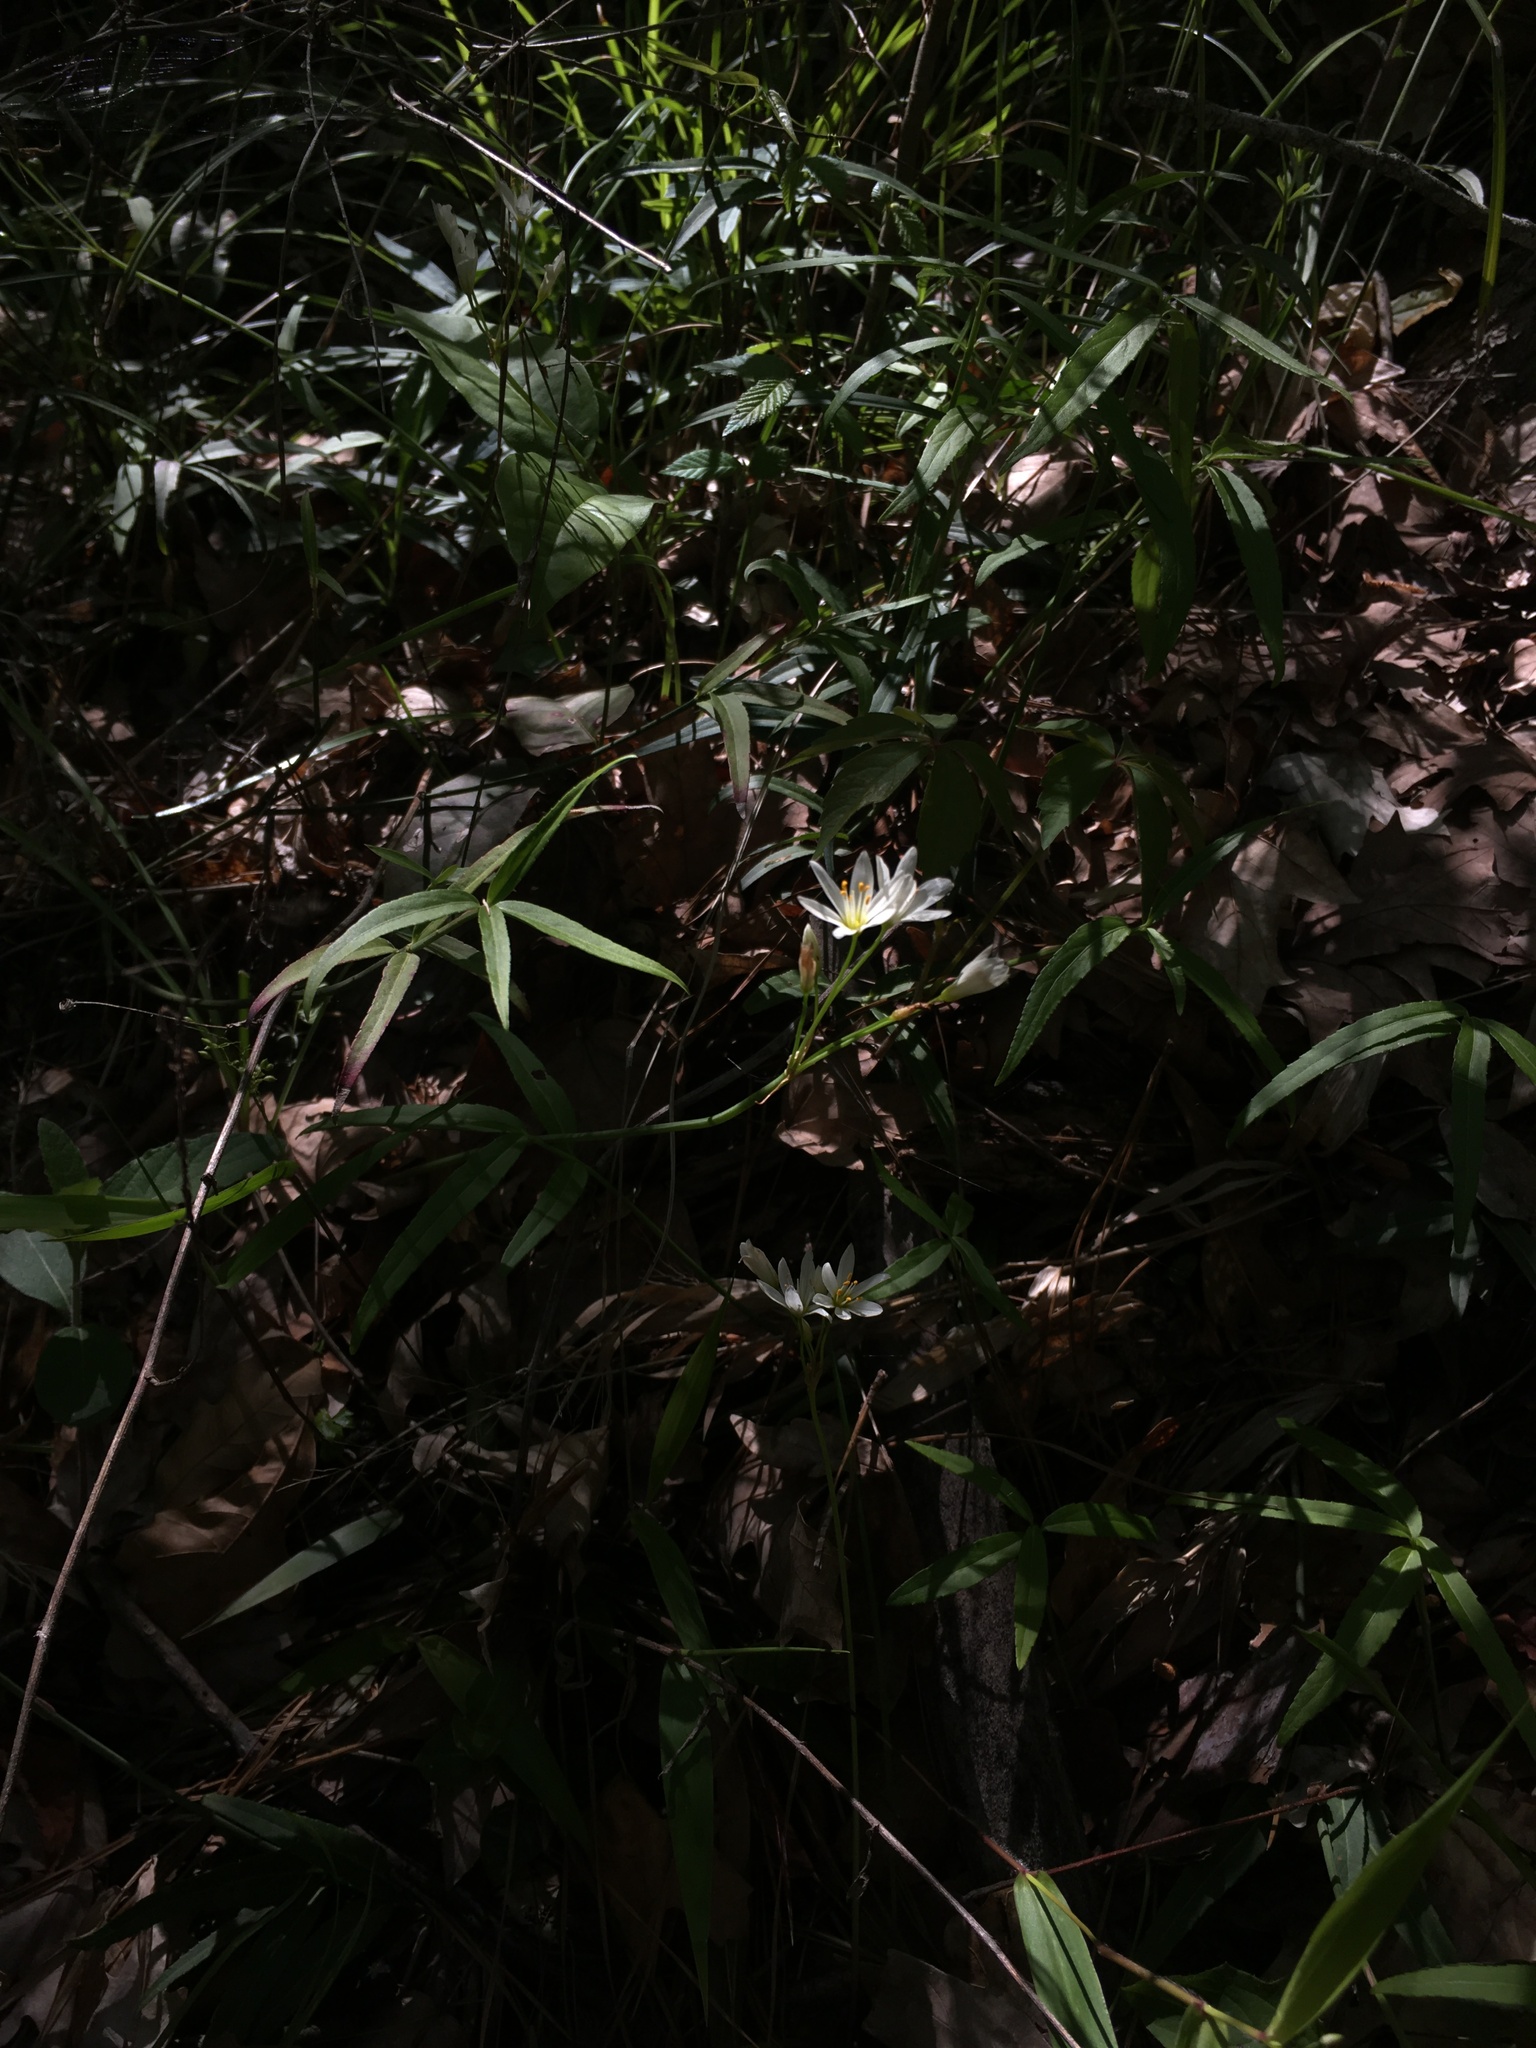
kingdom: Plantae
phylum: Tracheophyta
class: Liliopsida
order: Asparagales
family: Amaryllidaceae
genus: Nothoscordum
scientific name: Nothoscordum bivalve
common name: Crow-poison
